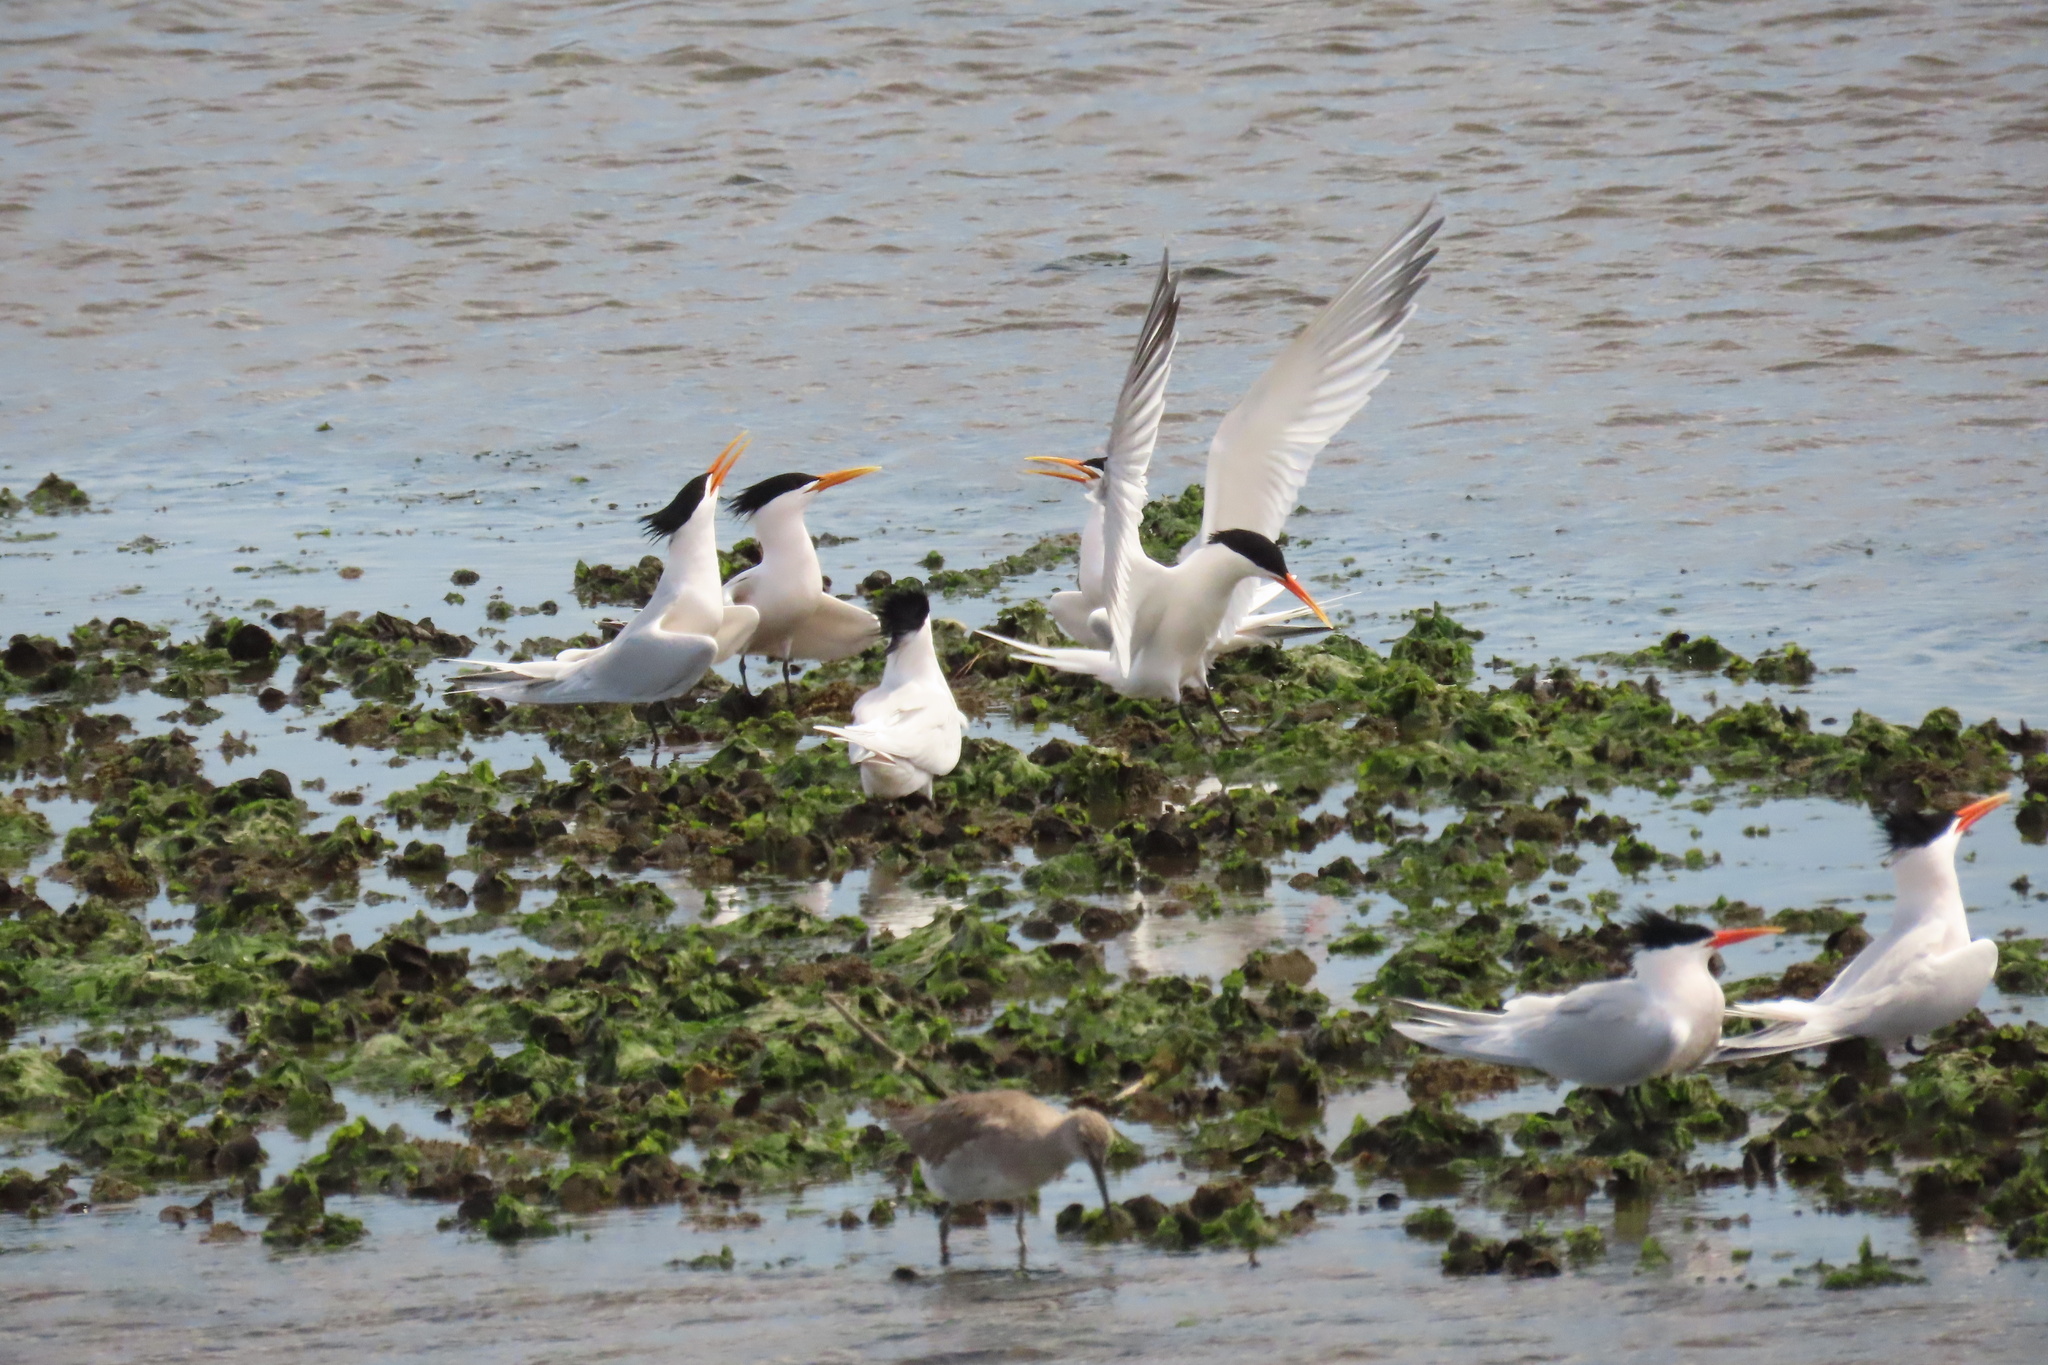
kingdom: Animalia
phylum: Chordata
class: Aves
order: Charadriiformes
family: Laridae
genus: Thalasseus
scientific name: Thalasseus elegans
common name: Elegant tern
